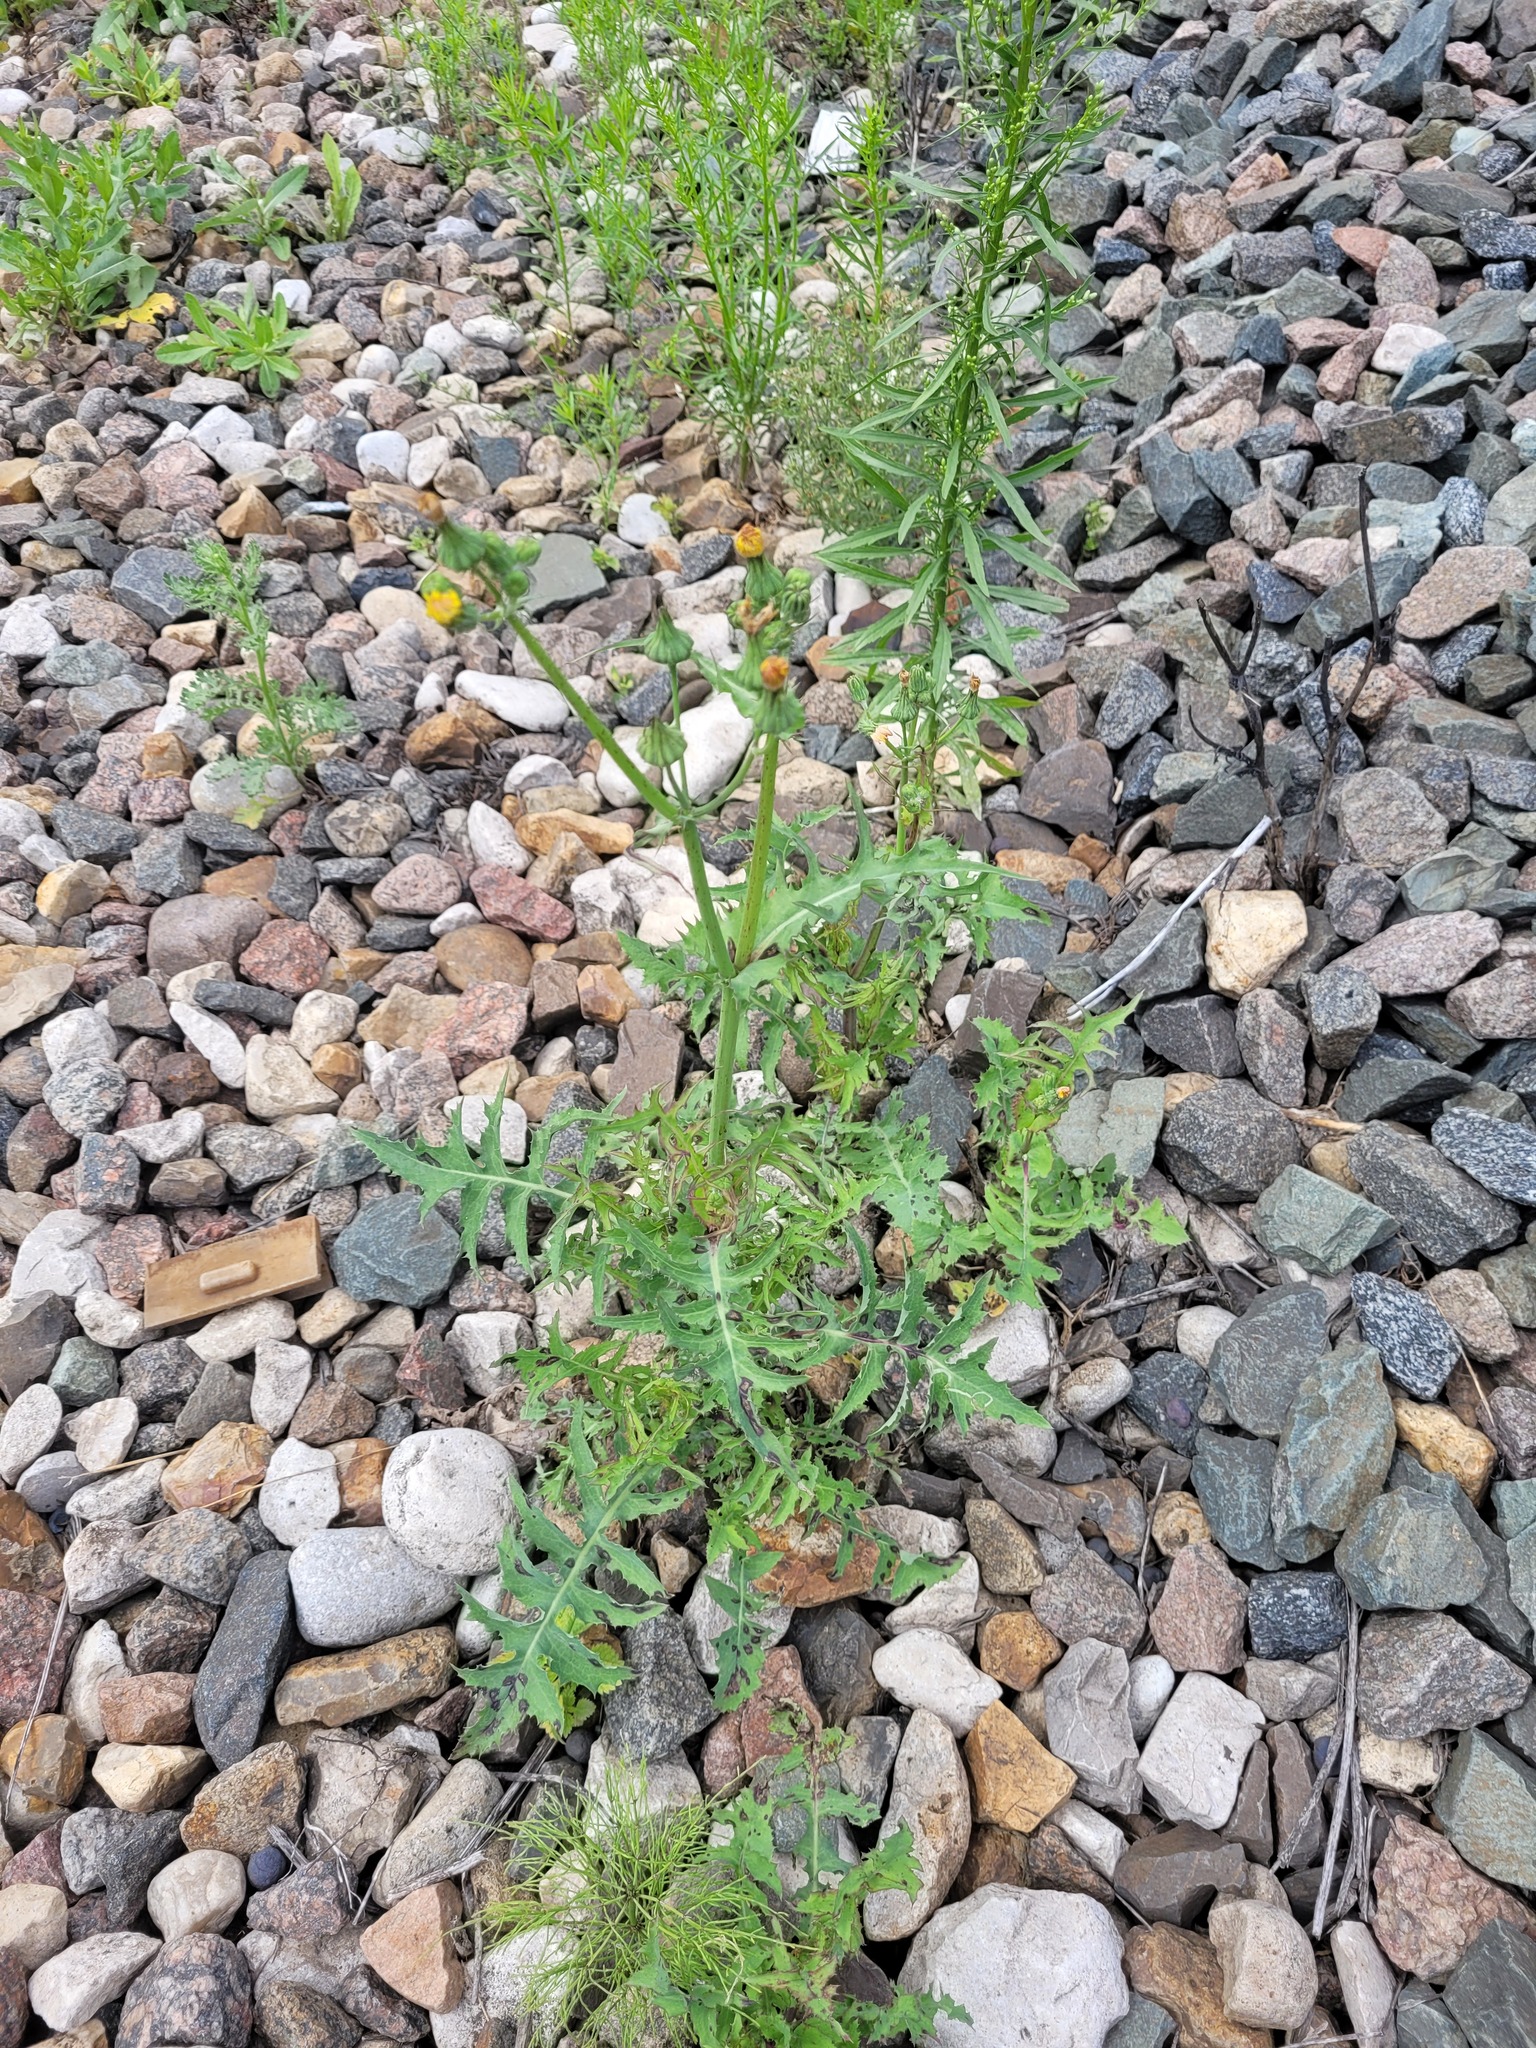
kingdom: Plantae
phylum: Tracheophyta
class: Magnoliopsida
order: Asterales
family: Asteraceae
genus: Sonchus
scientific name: Sonchus oleraceus
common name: Common sowthistle
